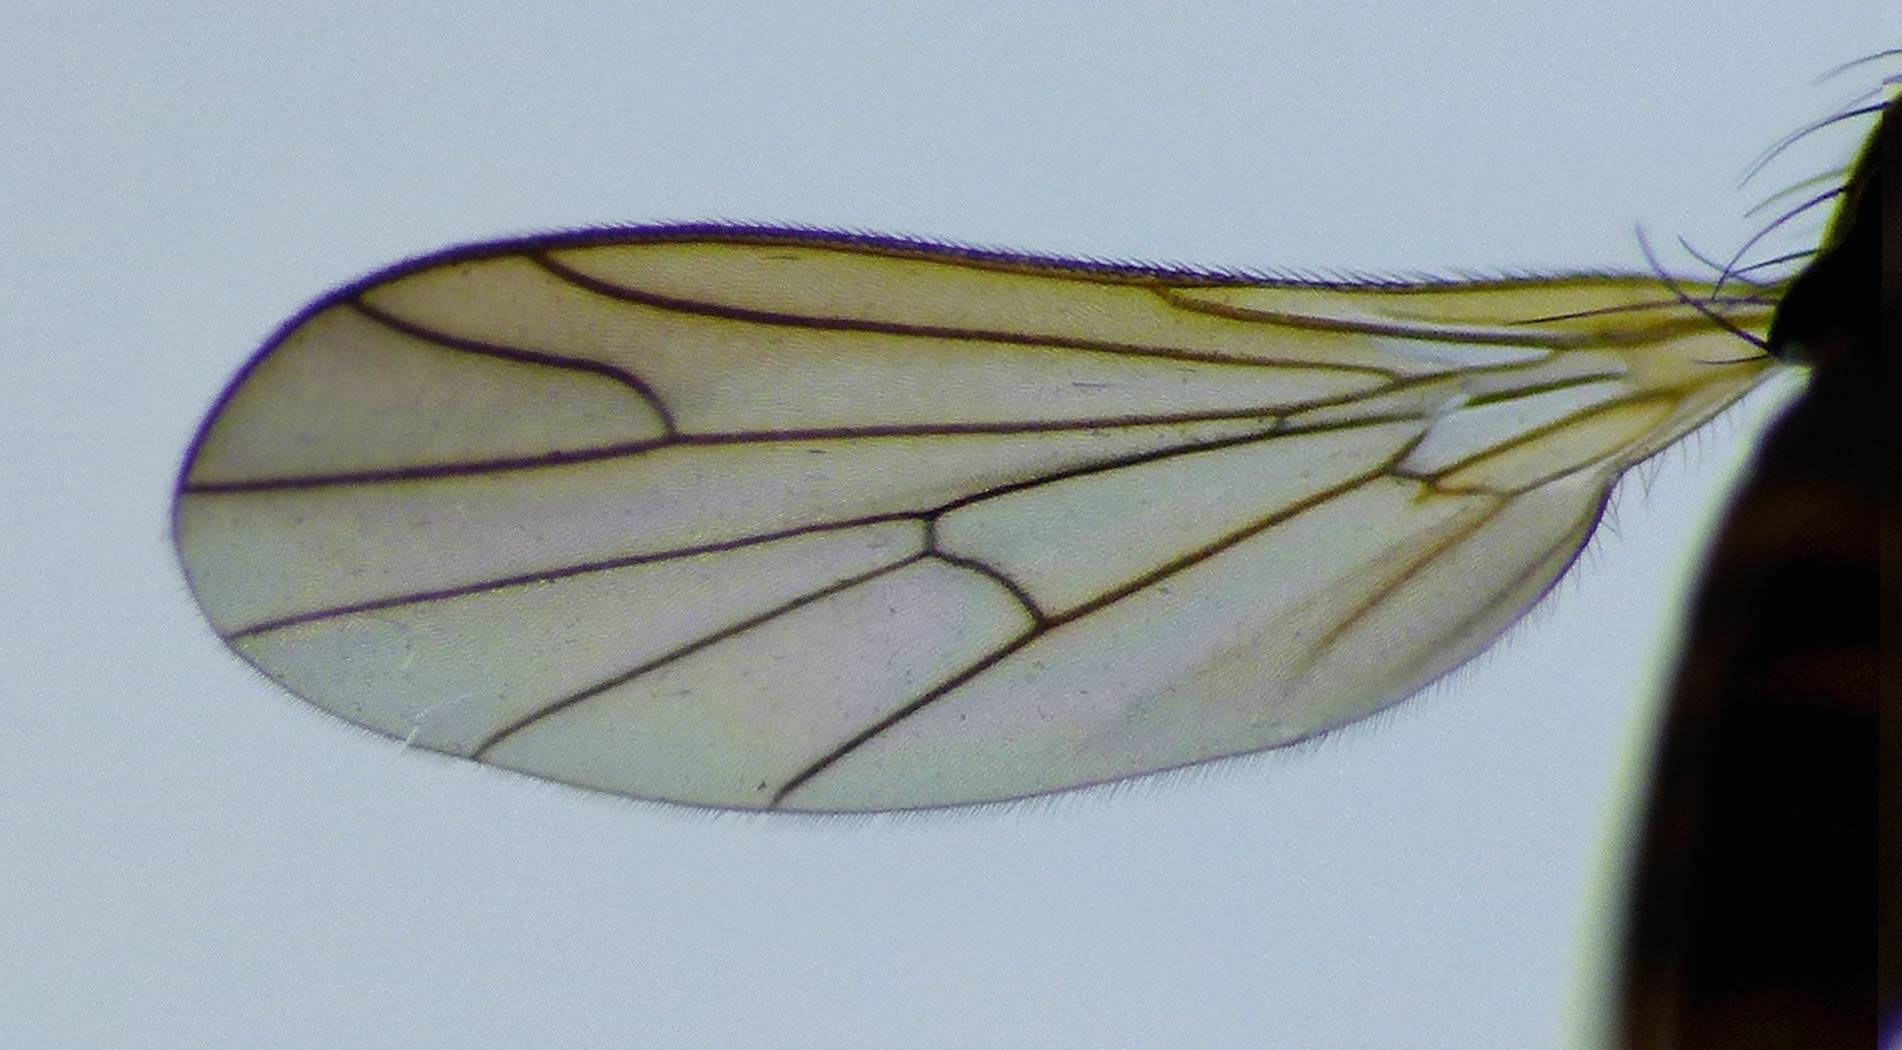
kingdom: Animalia
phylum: Arthropoda
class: Insecta
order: Diptera
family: Empididae
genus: Empidadelpha
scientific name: Empidadelpha propria
